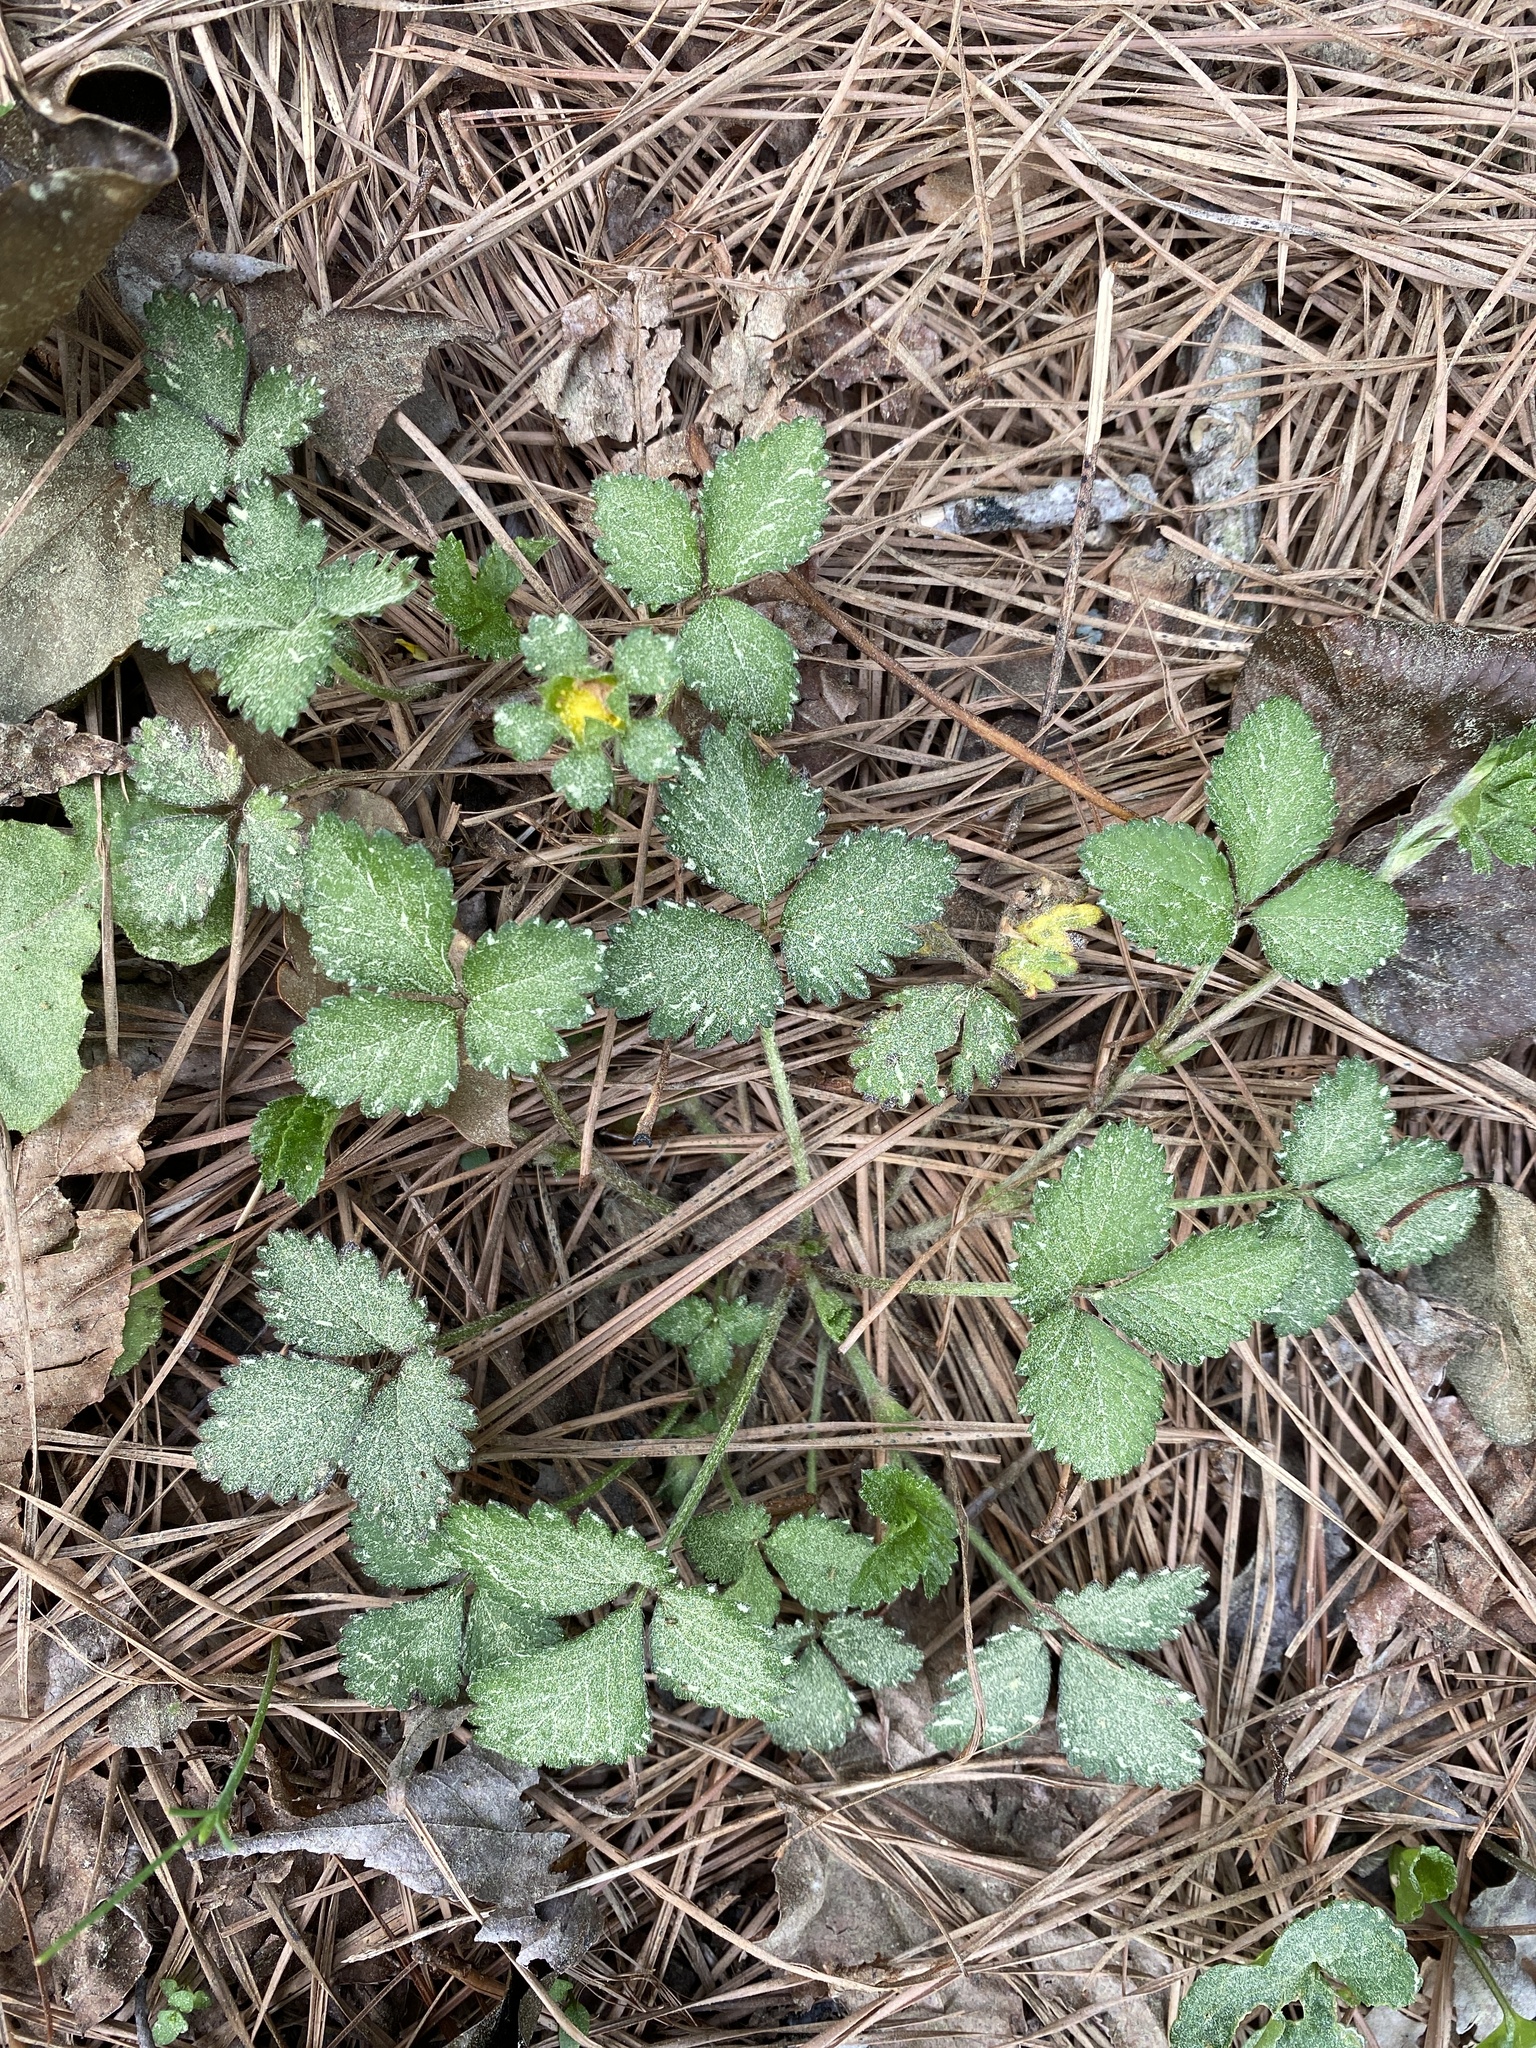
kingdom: Plantae
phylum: Tracheophyta
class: Magnoliopsida
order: Rosales
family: Rosaceae
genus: Potentilla
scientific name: Potentilla indica
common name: Yellow-flowered strawberry
